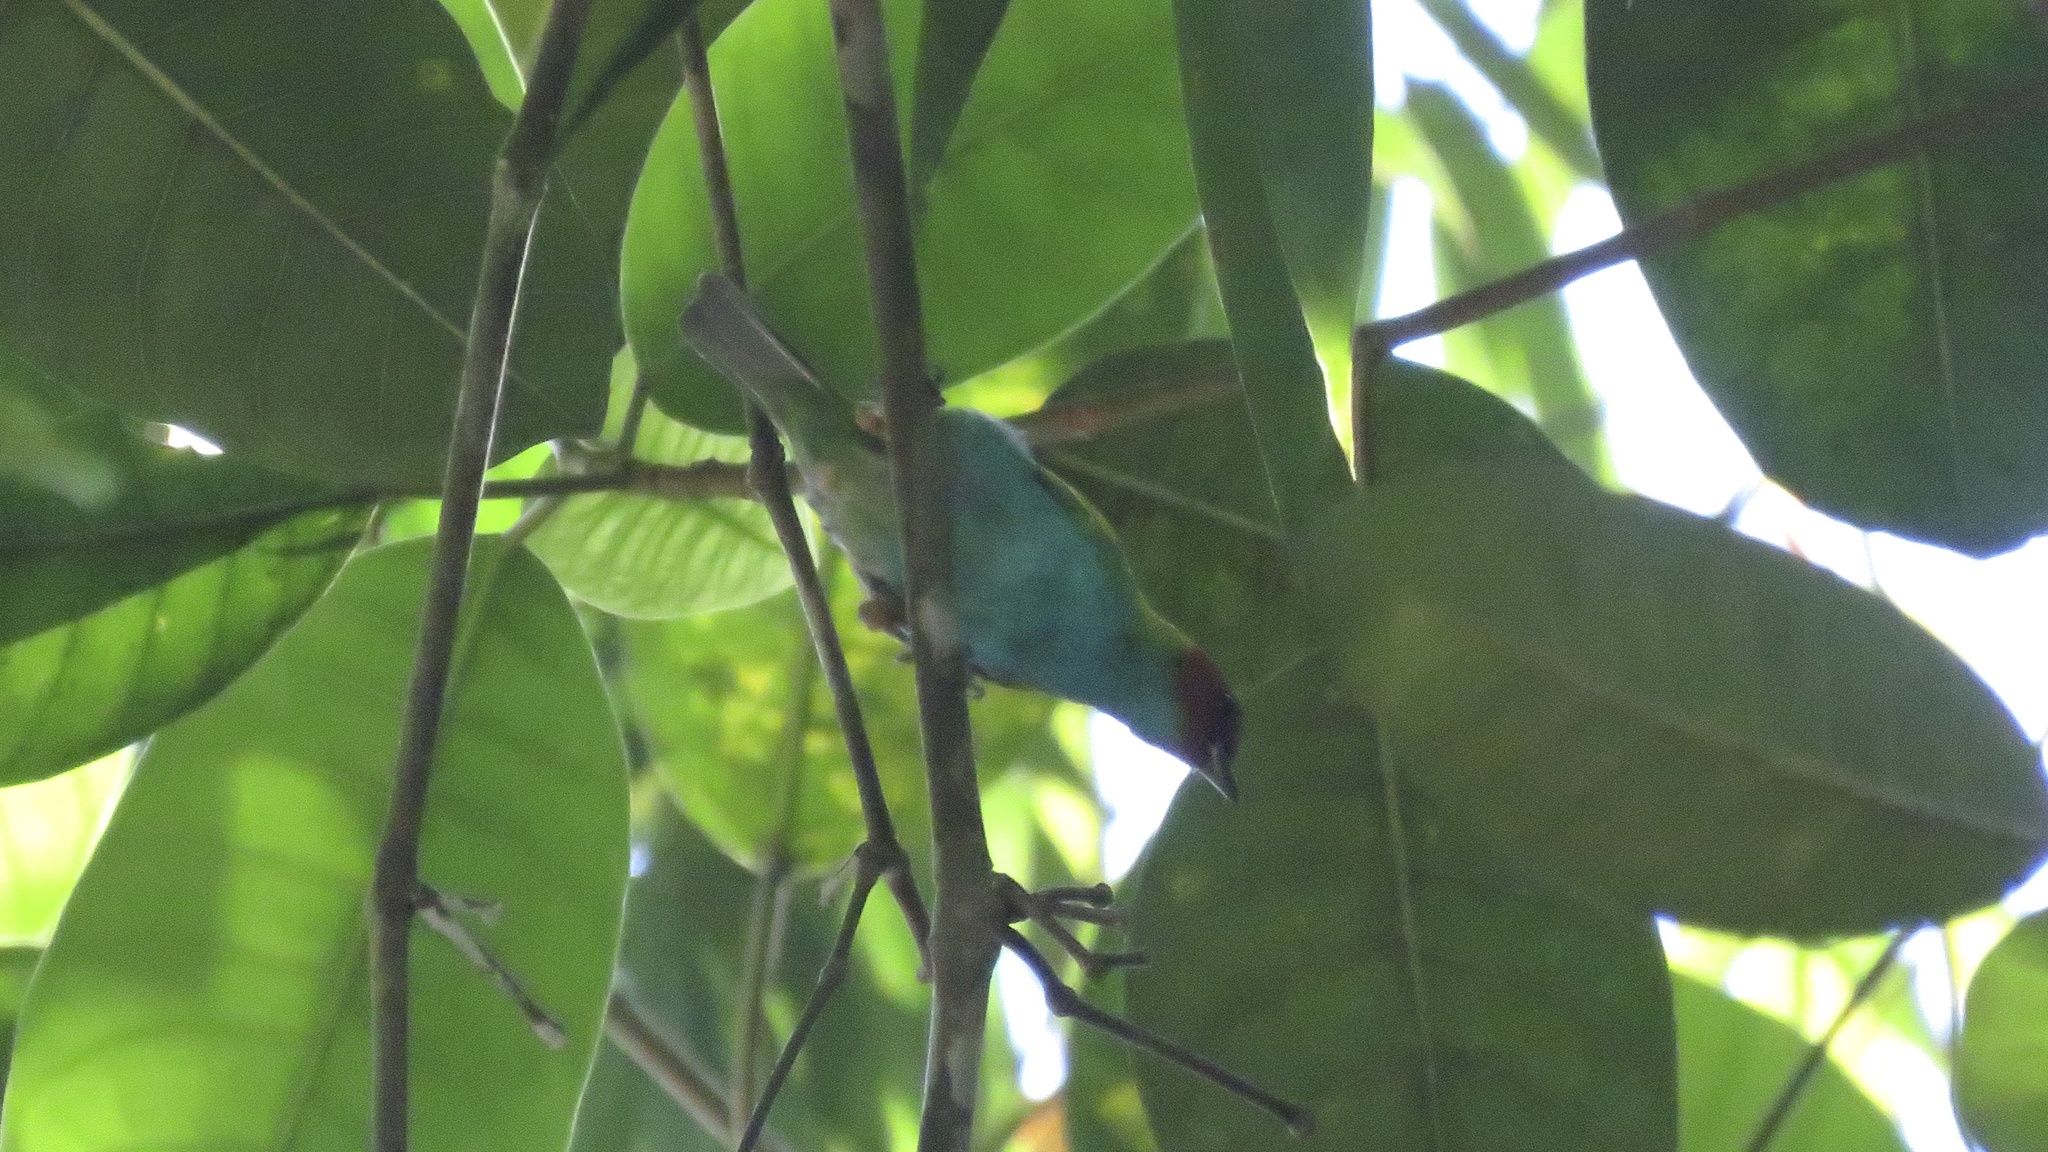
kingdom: Animalia
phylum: Chordata
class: Aves
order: Passeriformes
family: Thraupidae
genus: Tangara
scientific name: Tangara gyrola
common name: Bay-headed tanager
